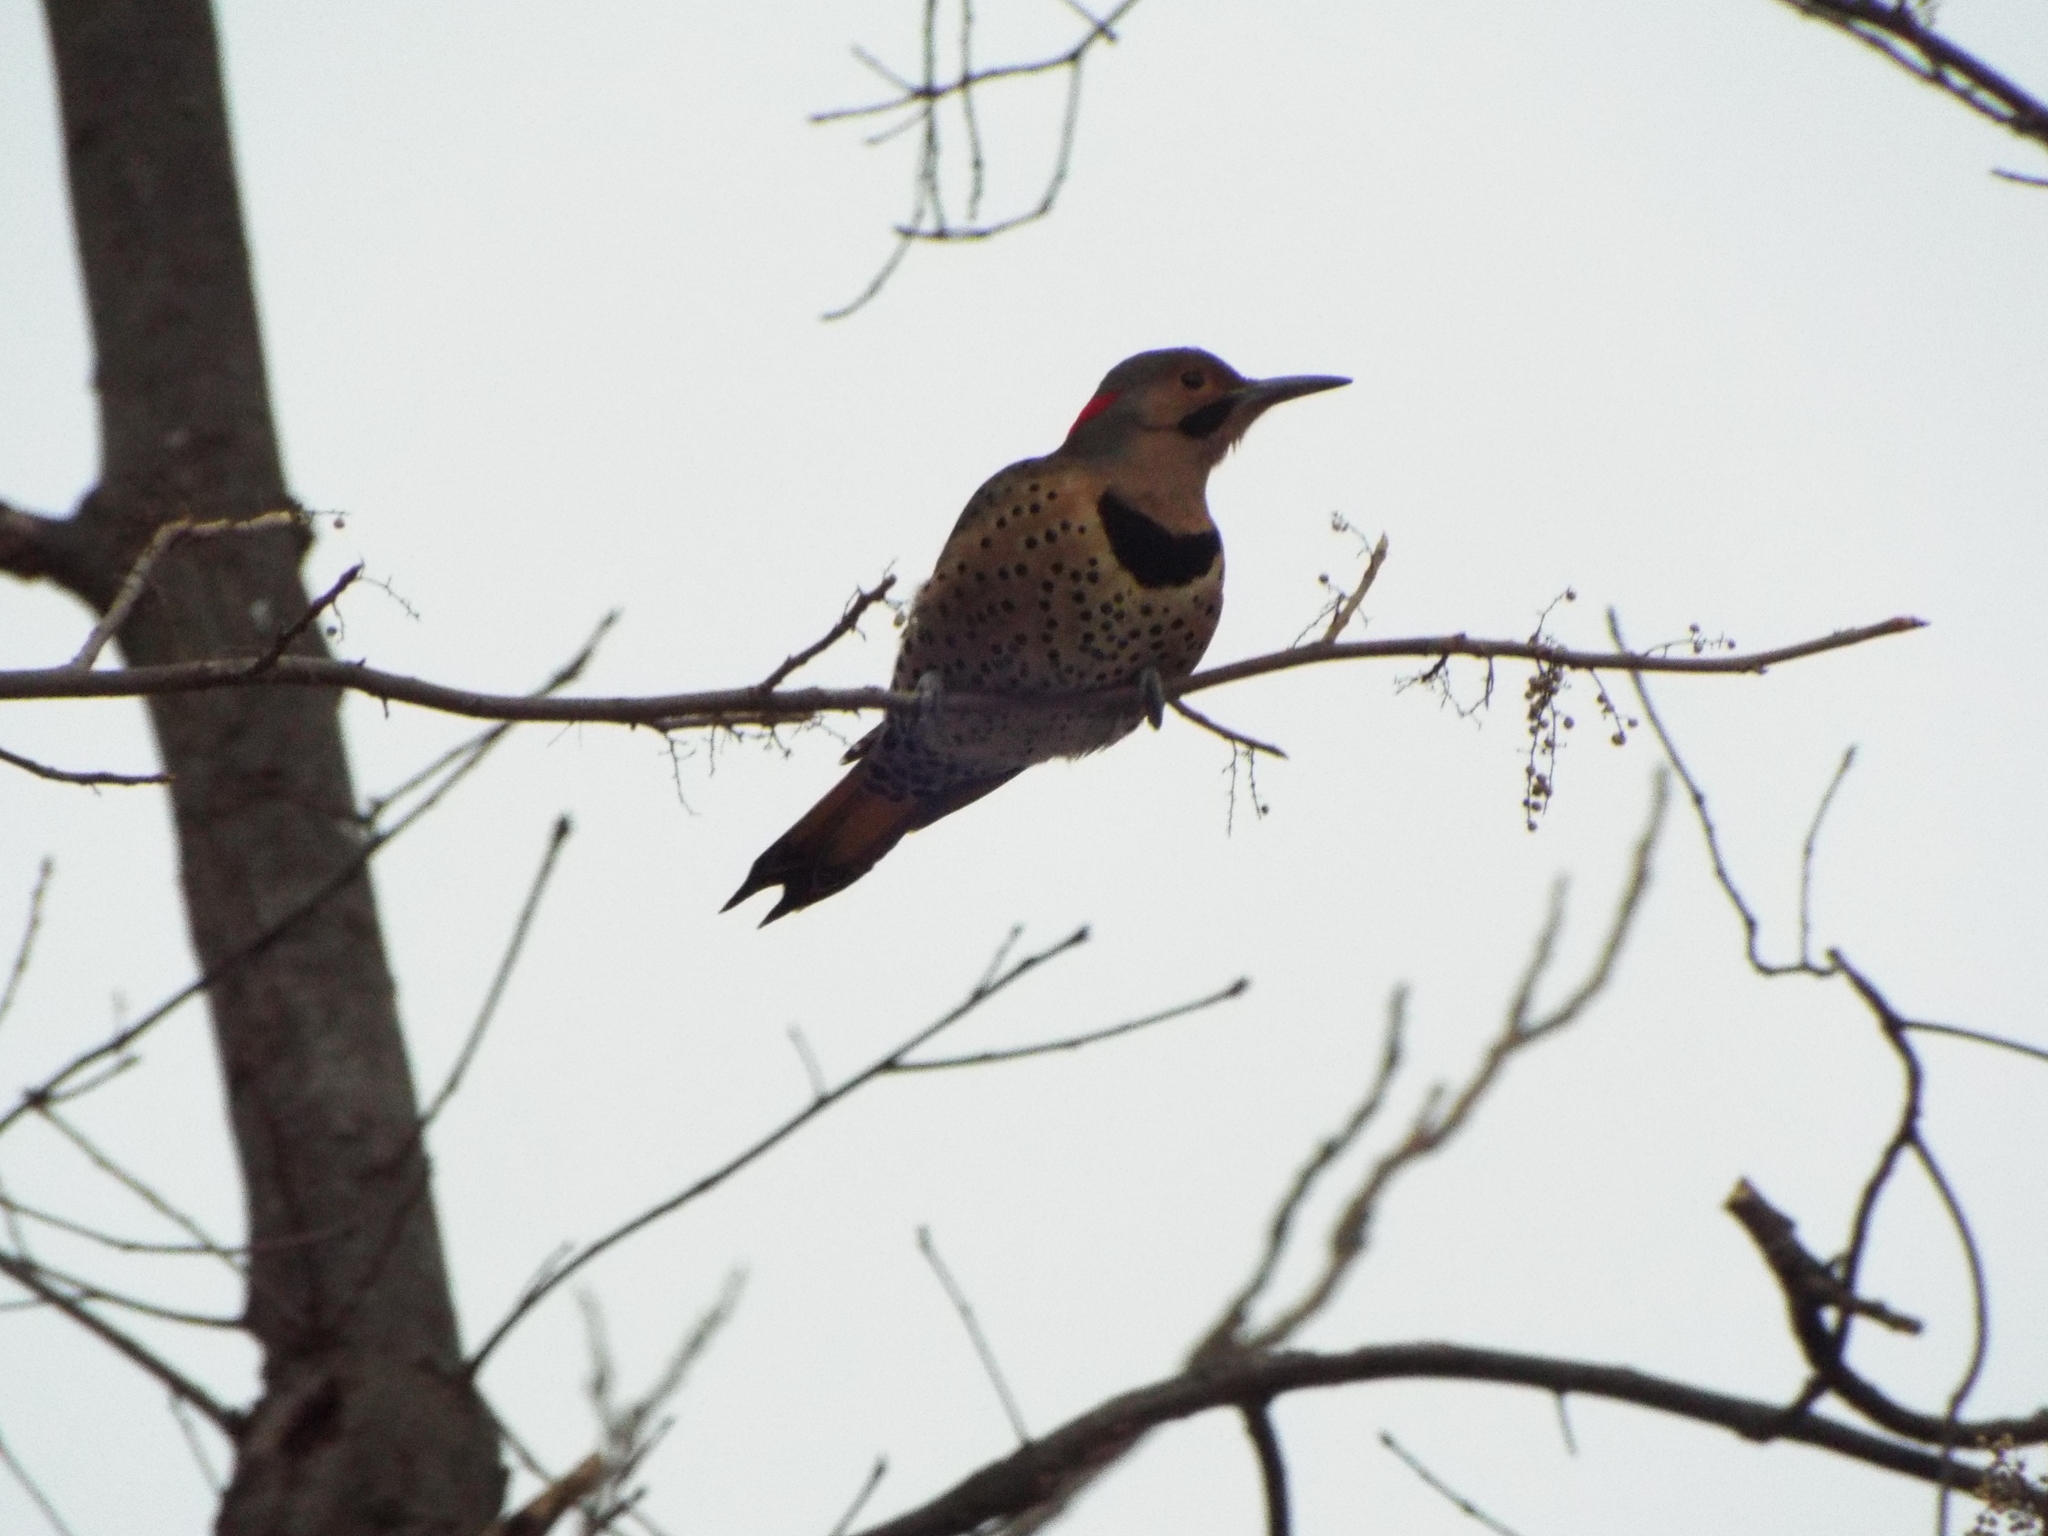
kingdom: Animalia
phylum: Chordata
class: Aves
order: Piciformes
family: Picidae
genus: Colaptes
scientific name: Colaptes auratus
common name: Northern flicker
